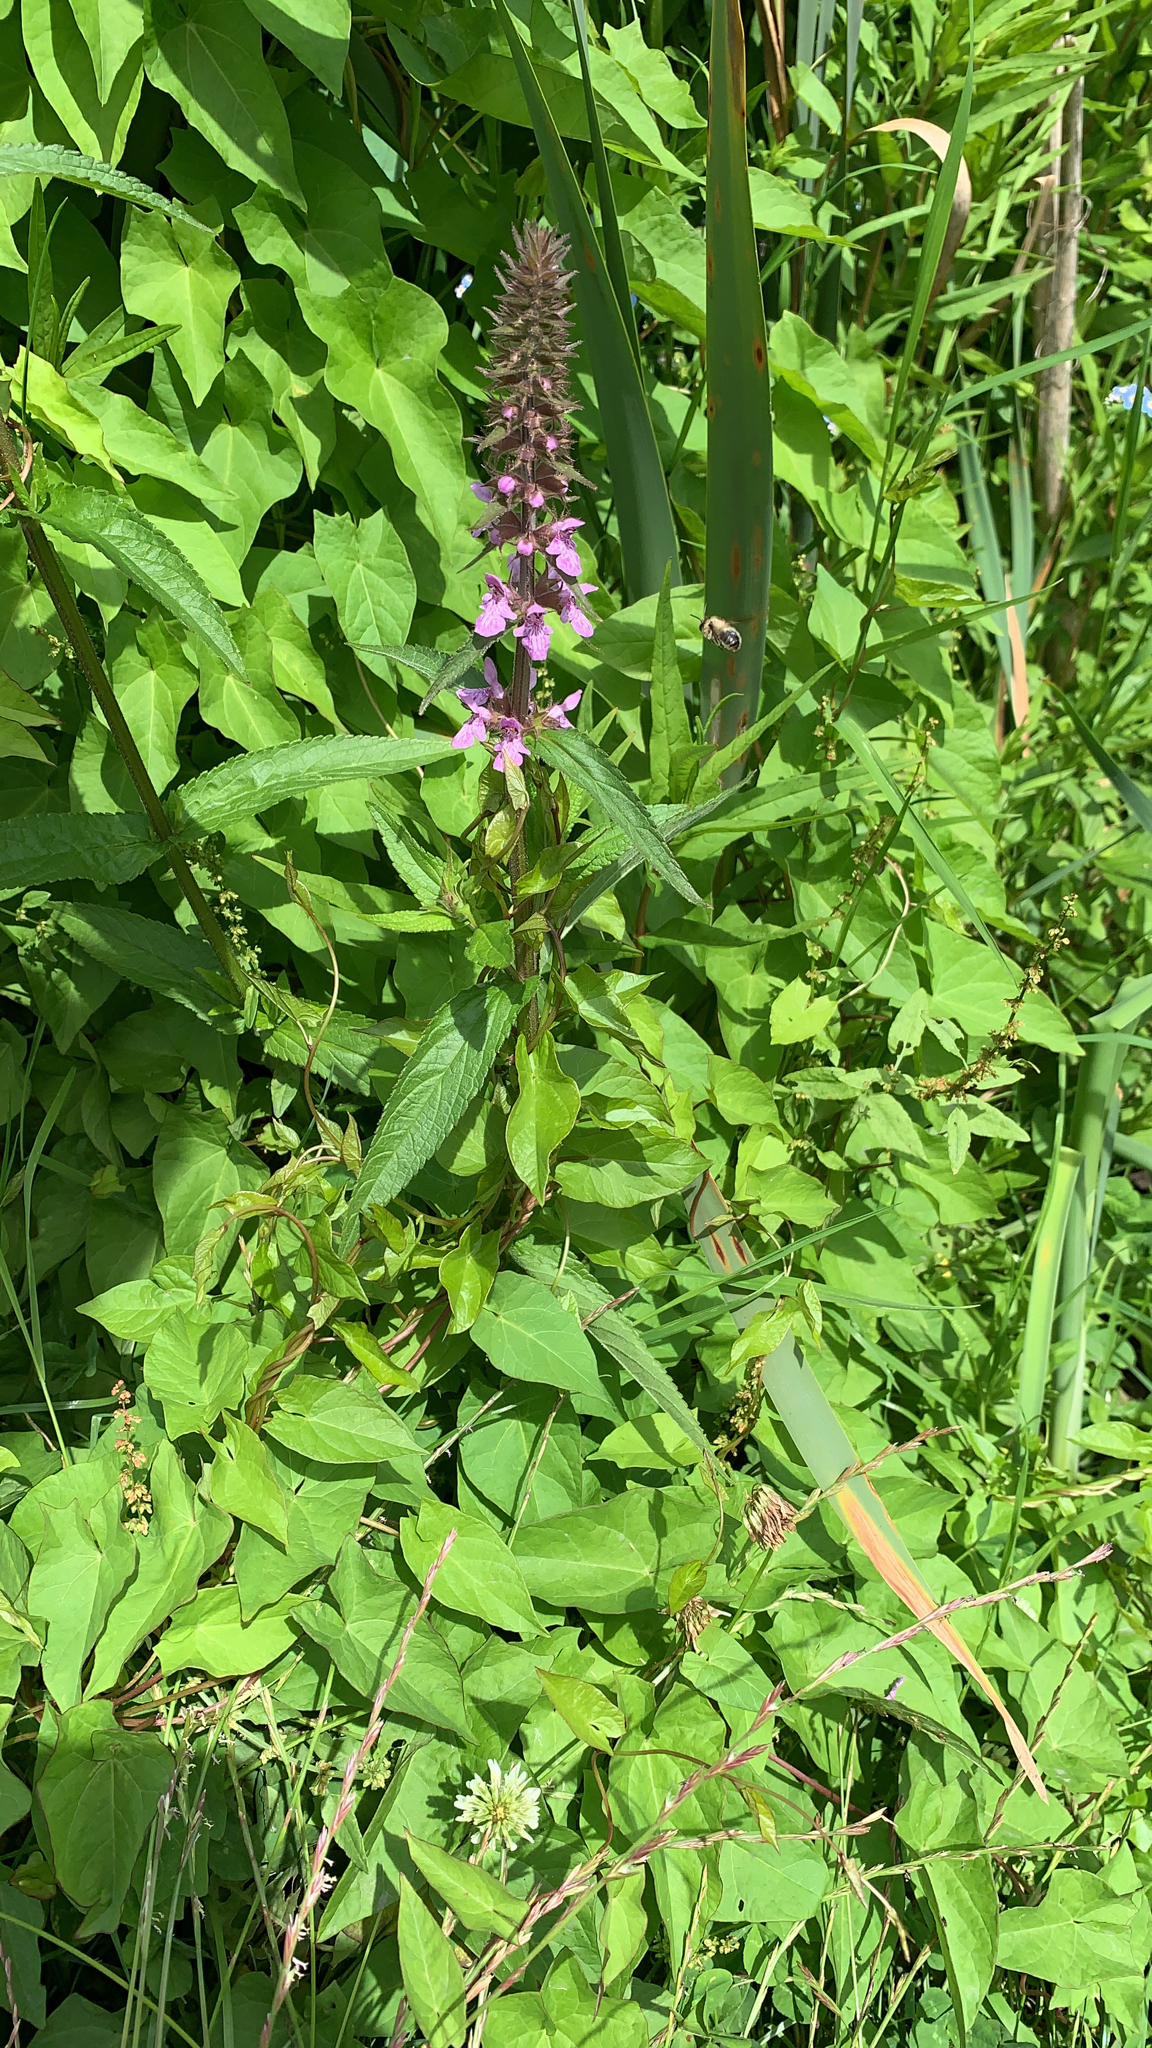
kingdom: Plantae
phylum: Tracheophyta
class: Magnoliopsida
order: Lamiales
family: Lamiaceae
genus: Stachys
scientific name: Stachys palustris
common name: Marsh woundwort
